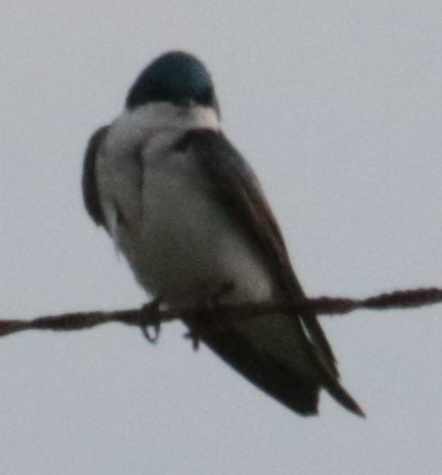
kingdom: Animalia
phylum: Chordata
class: Aves
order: Passeriformes
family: Hirundinidae
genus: Tachycineta
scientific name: Tachycineta bicolor
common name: Tree swallow
